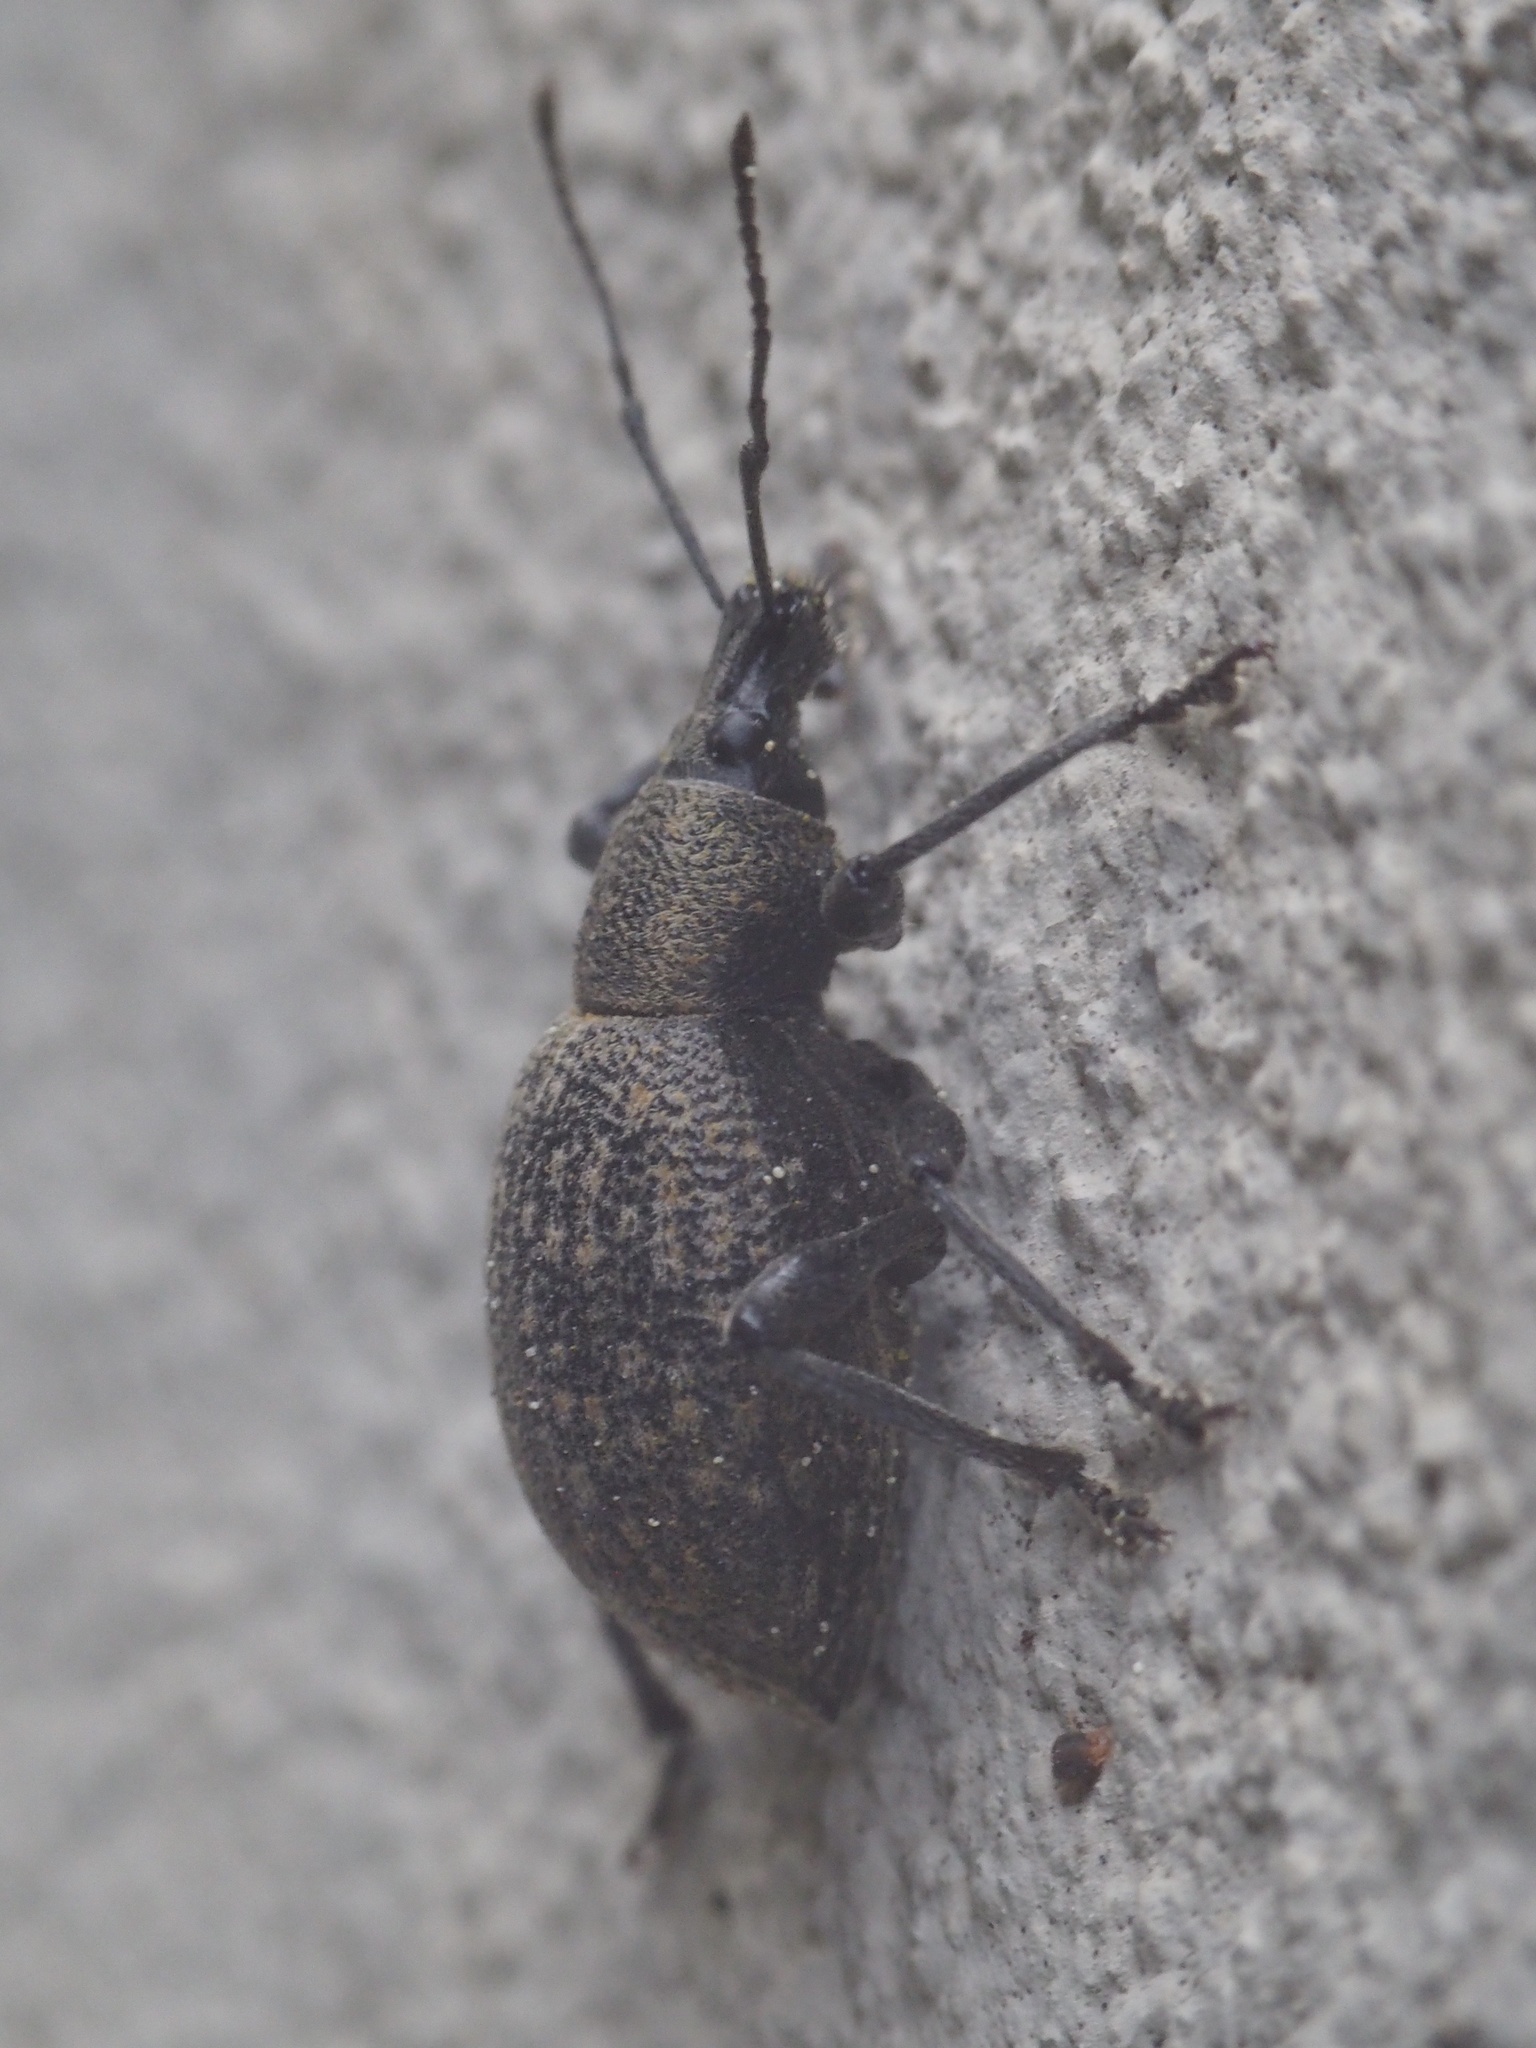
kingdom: Animalia
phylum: Arthropoda
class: Insecta
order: Coleoptera
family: Curculionidae
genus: Otiorhynchus
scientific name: Otiorhynchus armadillo
